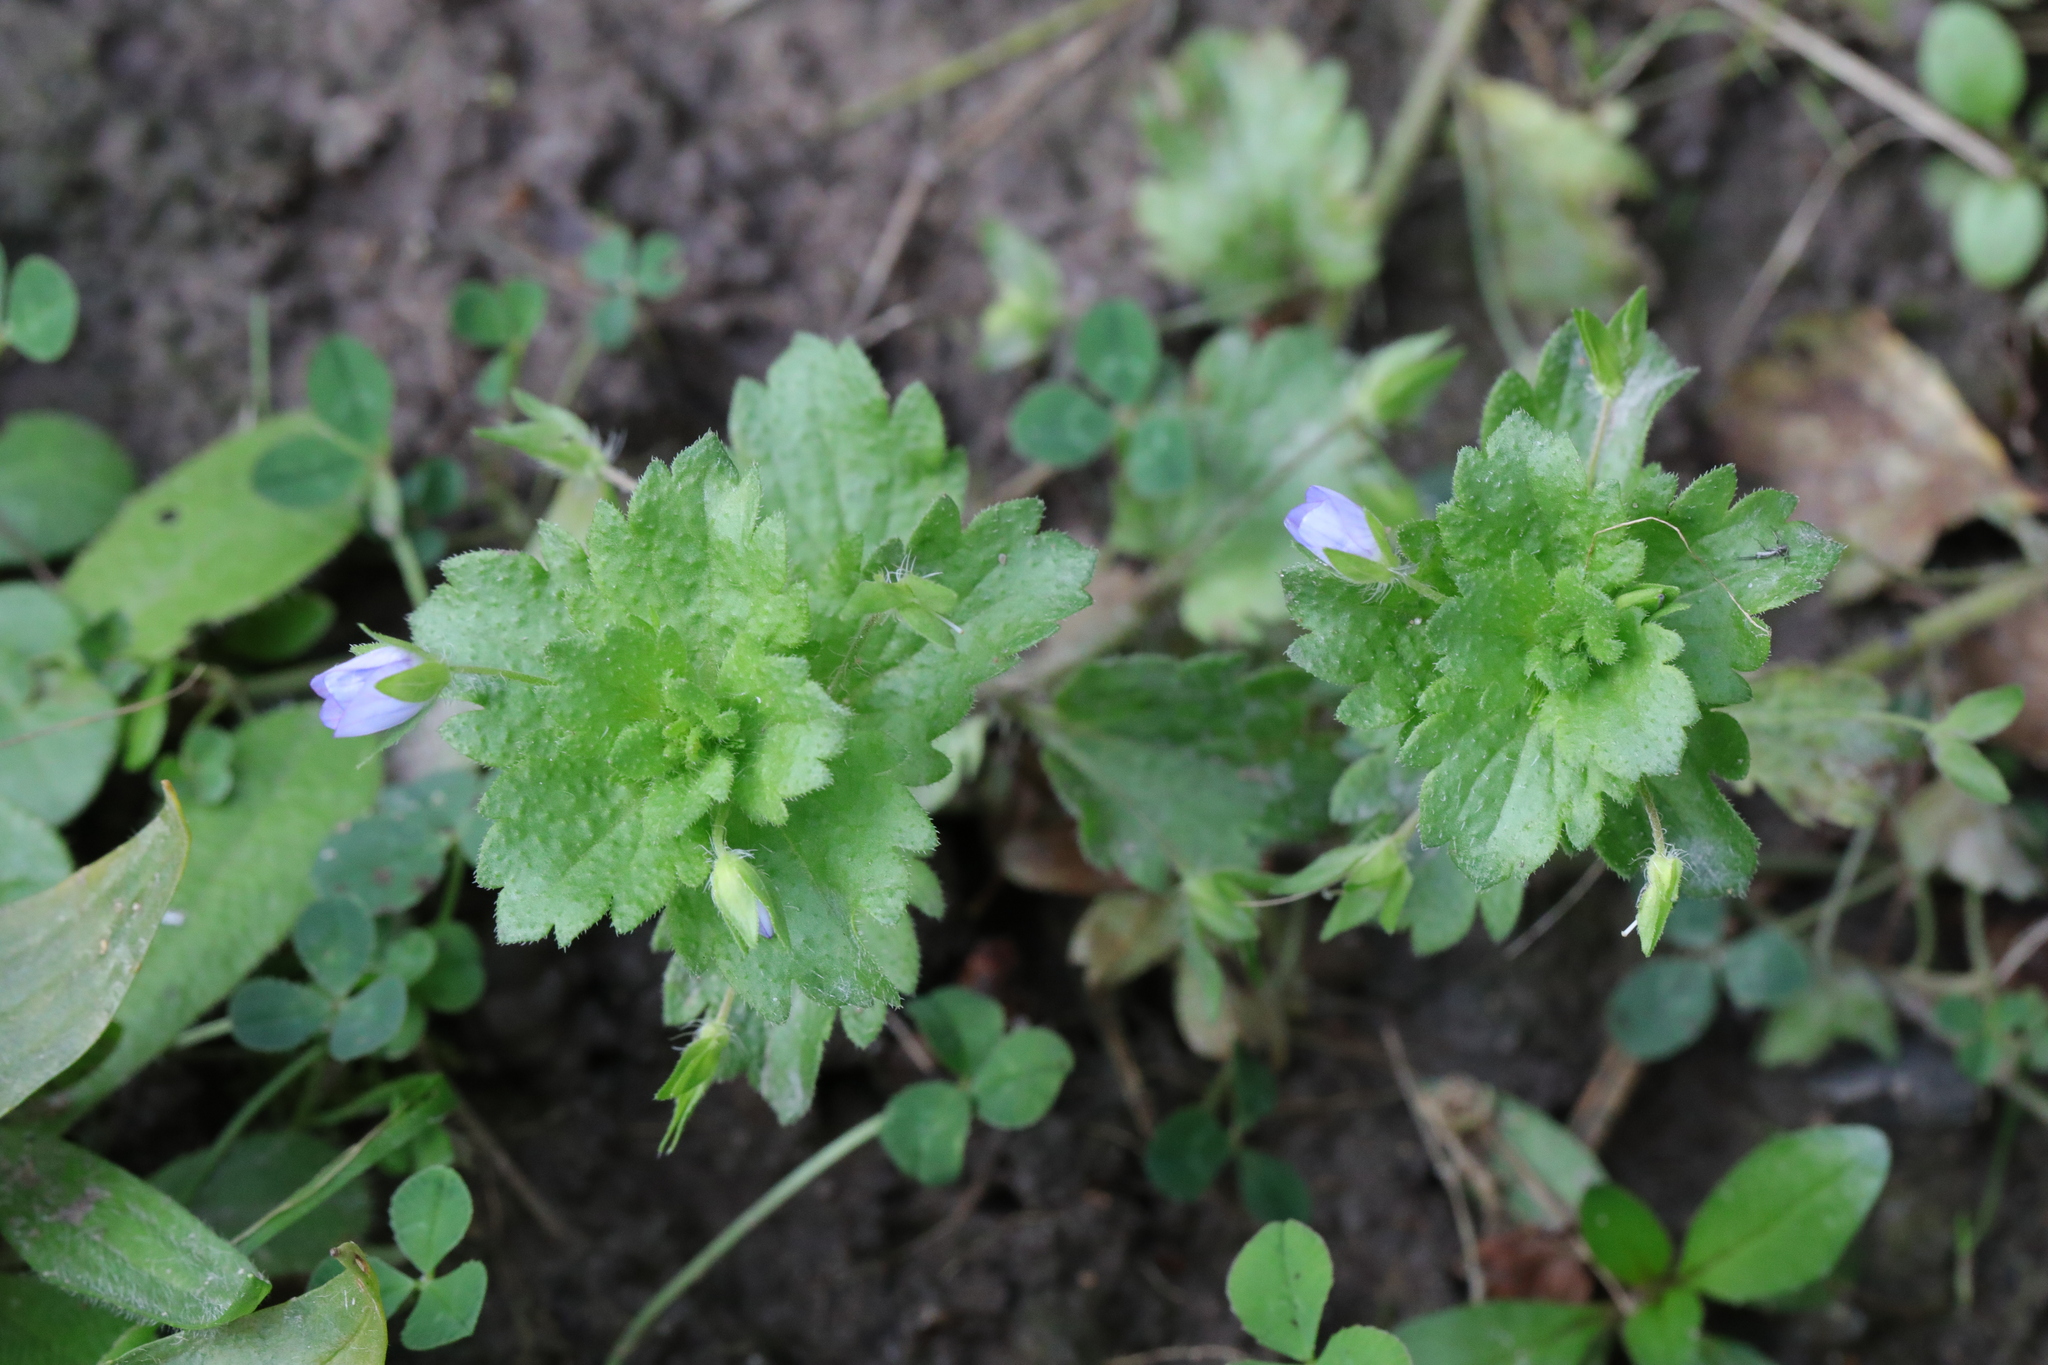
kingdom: Plantae
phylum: Tracheophyta
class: Magnoliopsida
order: Lamiales
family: Plantaginaceae
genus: Veronica
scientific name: Veronica persica
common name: Common field-speedwell
